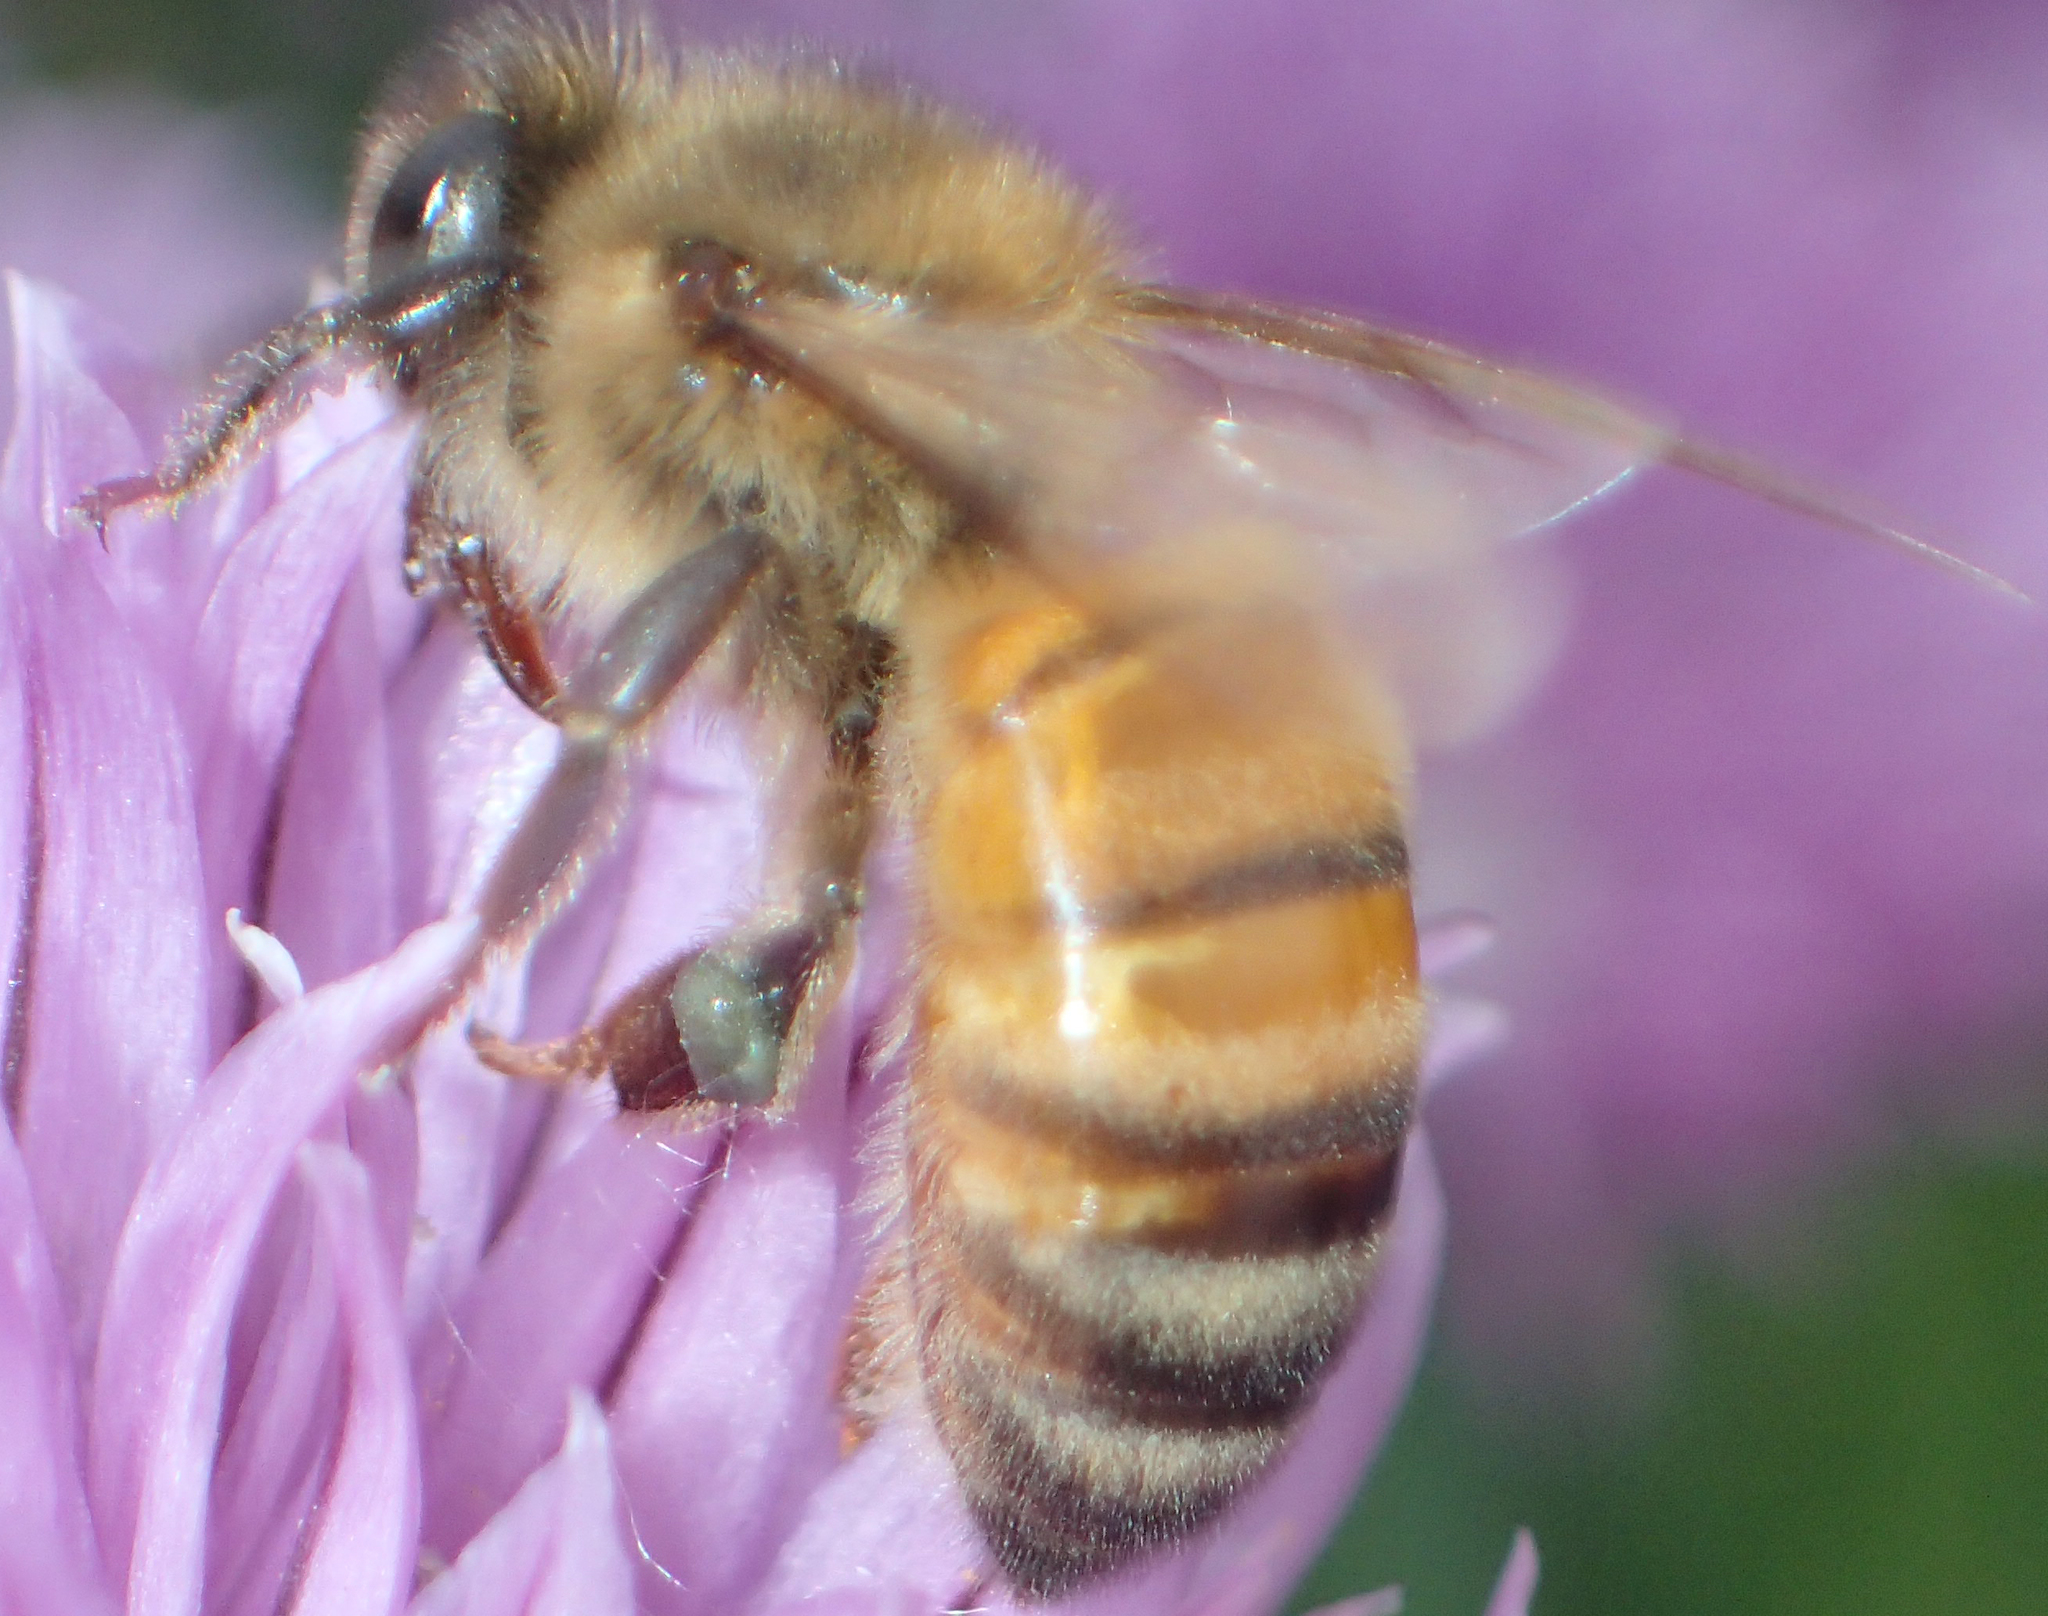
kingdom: Animalia
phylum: Arthropoda
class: Insecta
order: Hymenoptera
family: Apidae
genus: Apis
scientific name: Apis mellifera
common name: Honey bee
